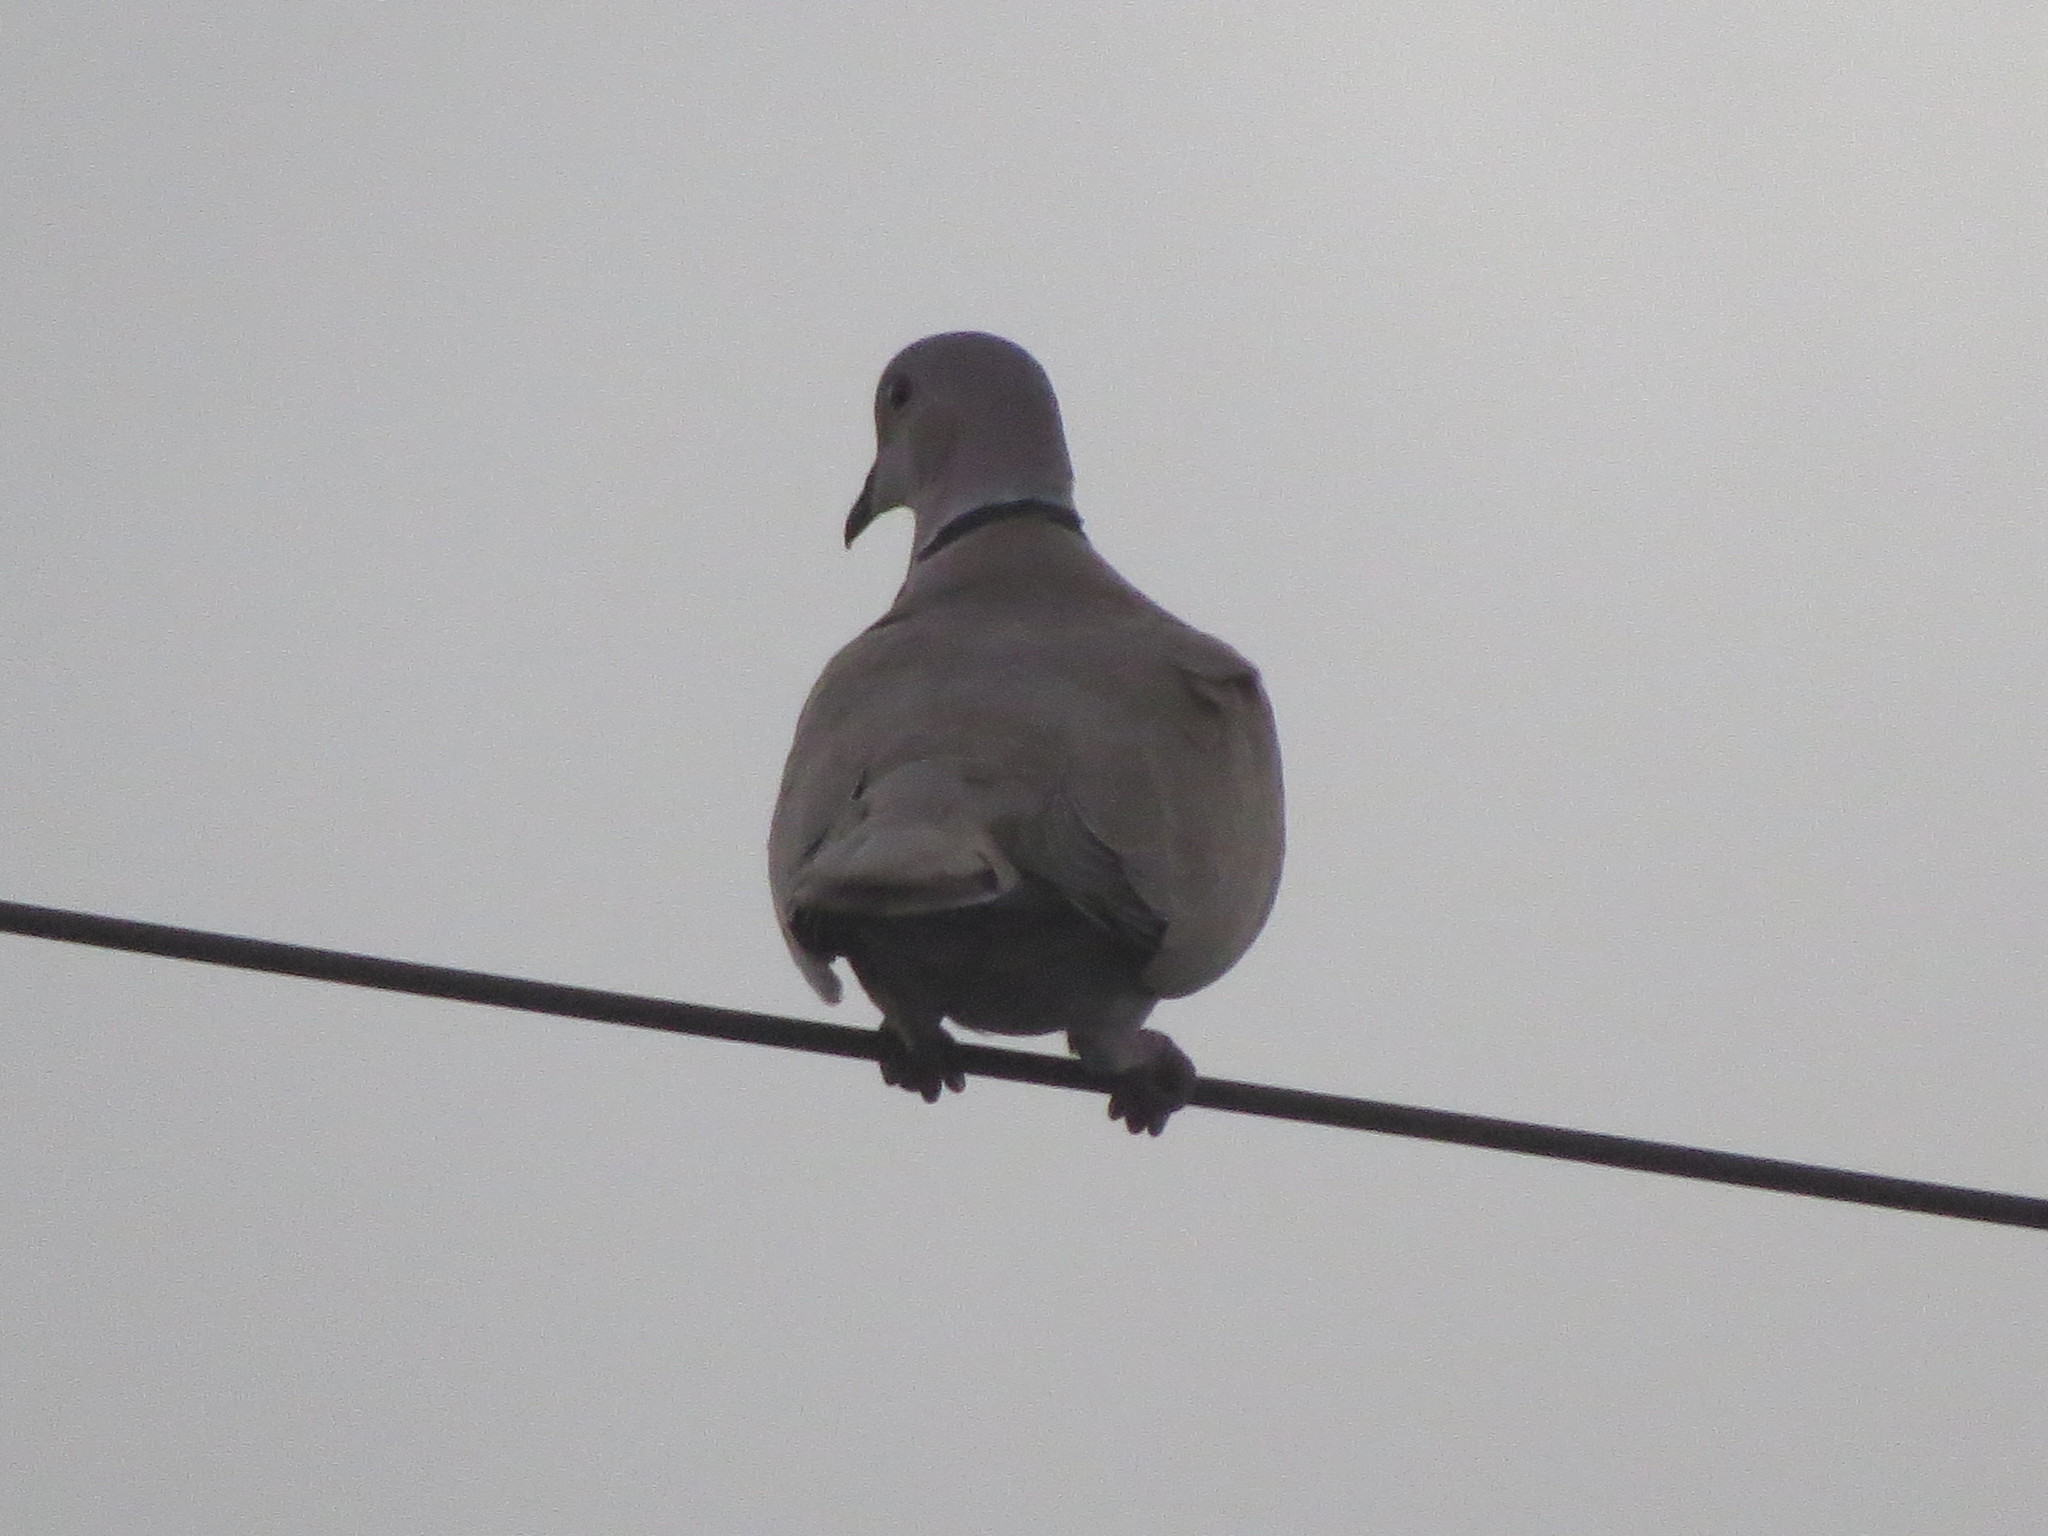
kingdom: Animalia
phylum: Chordata
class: Aves
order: Columbiformes
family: Columbidae
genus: Streptopelia
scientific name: Streptopelia decaocto
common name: Eurasian collared dove
